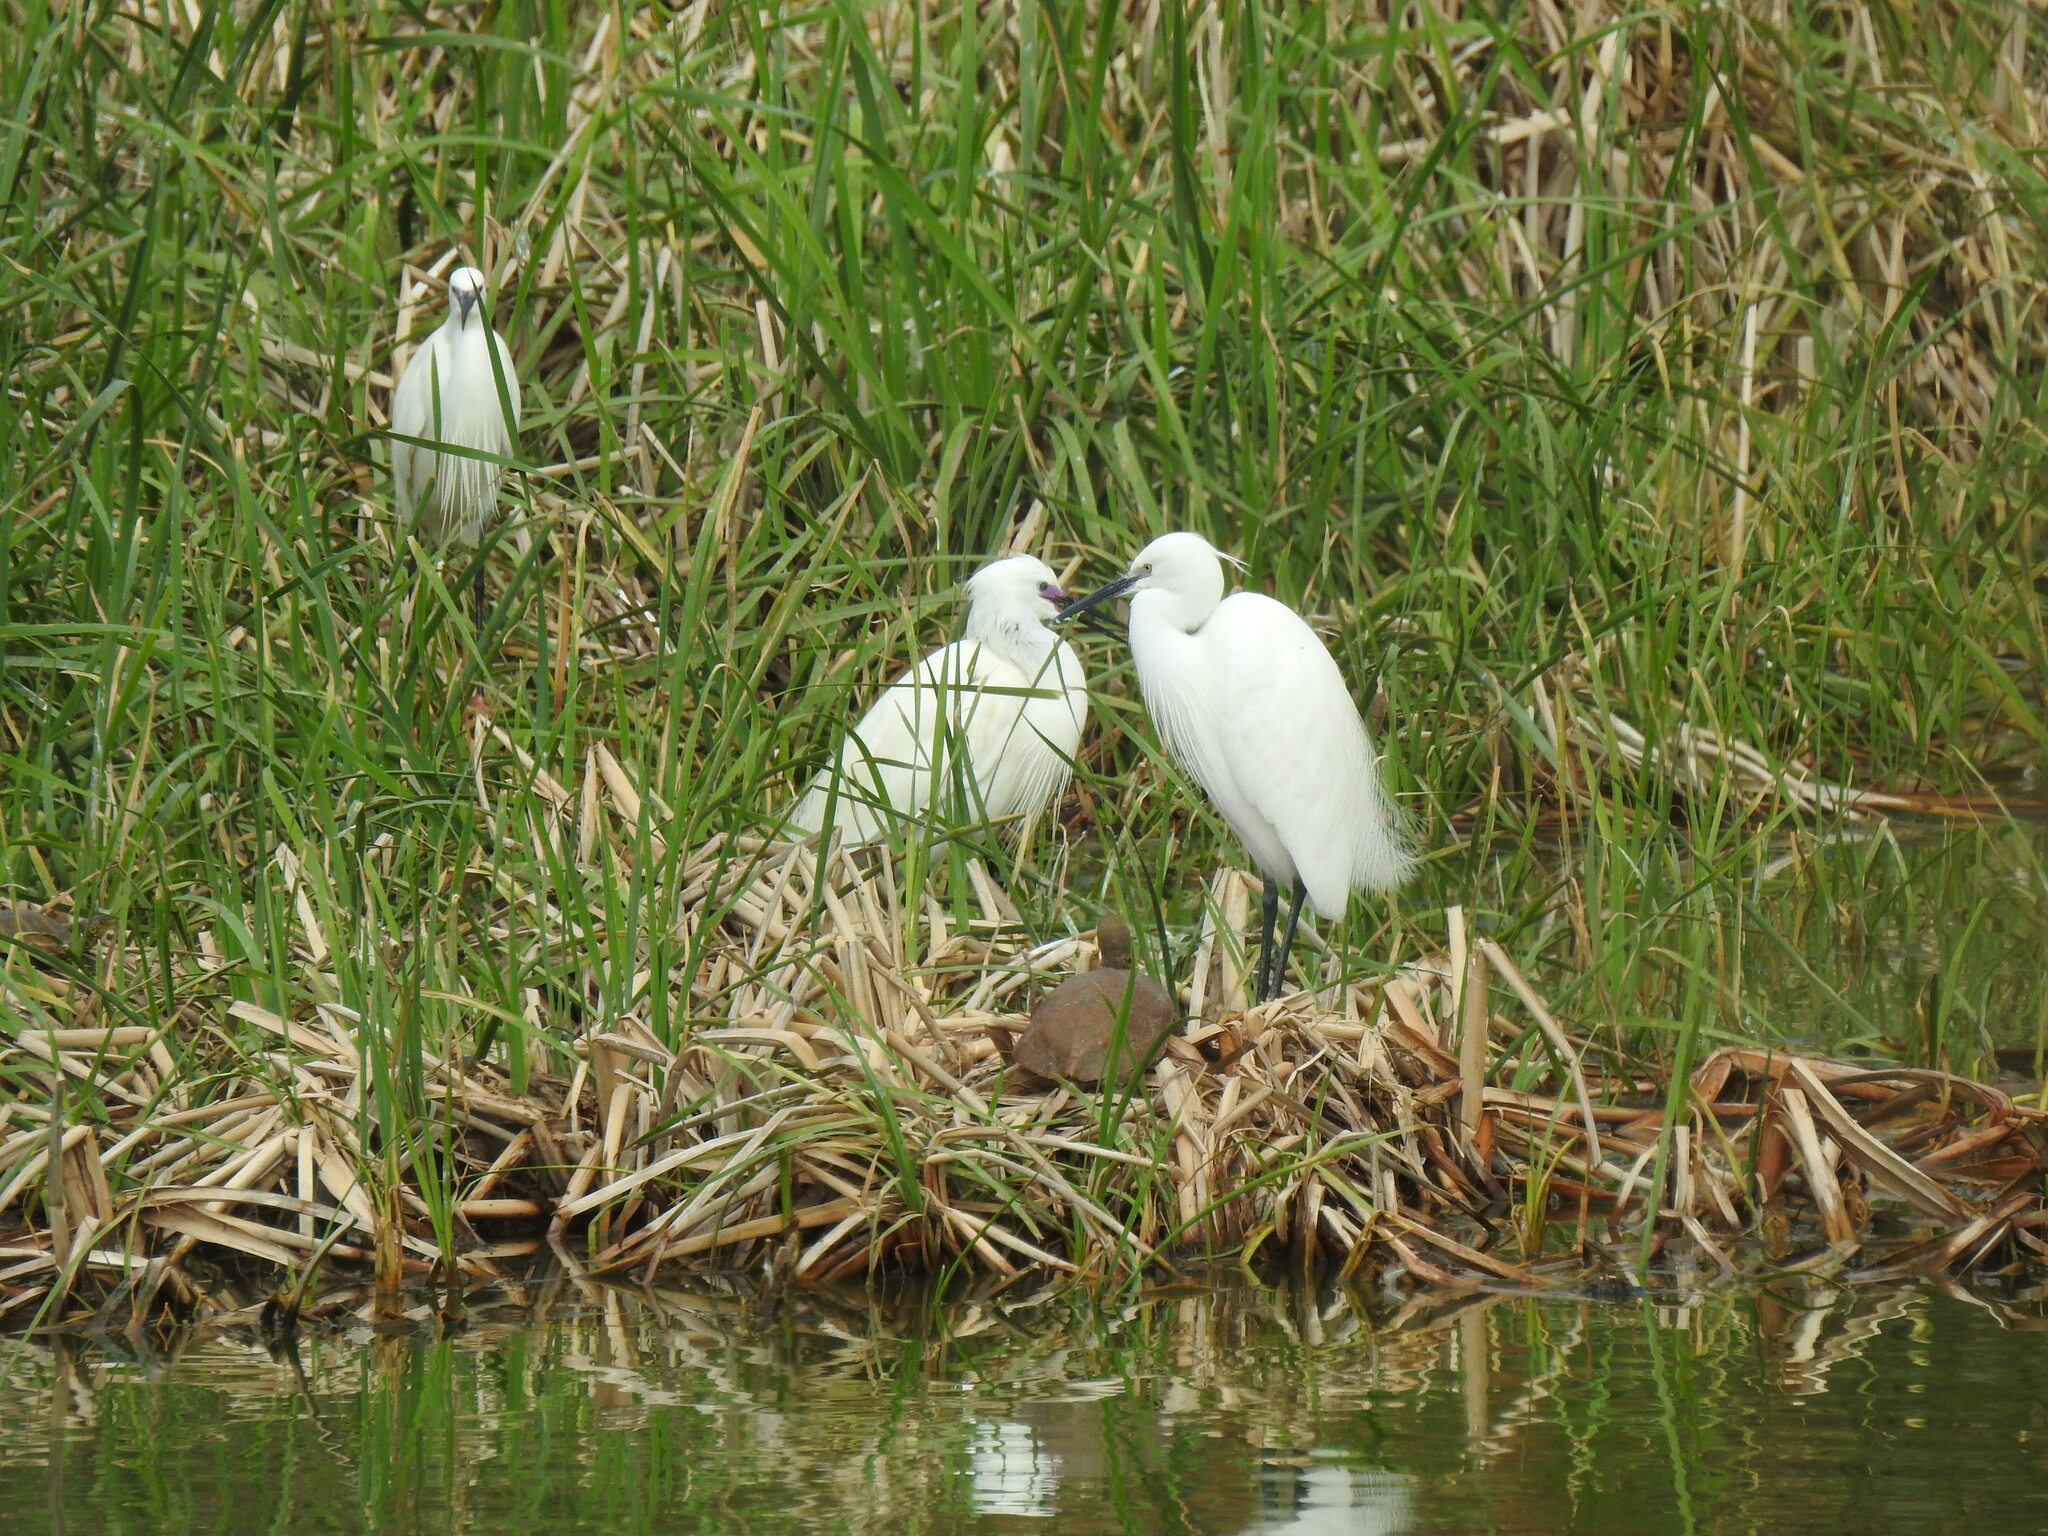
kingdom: Animalia
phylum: Chordata
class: Aves
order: Pelecaniformes
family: Ardeidae
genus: Egretta
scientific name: Egretta garzetta
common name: Little egret
